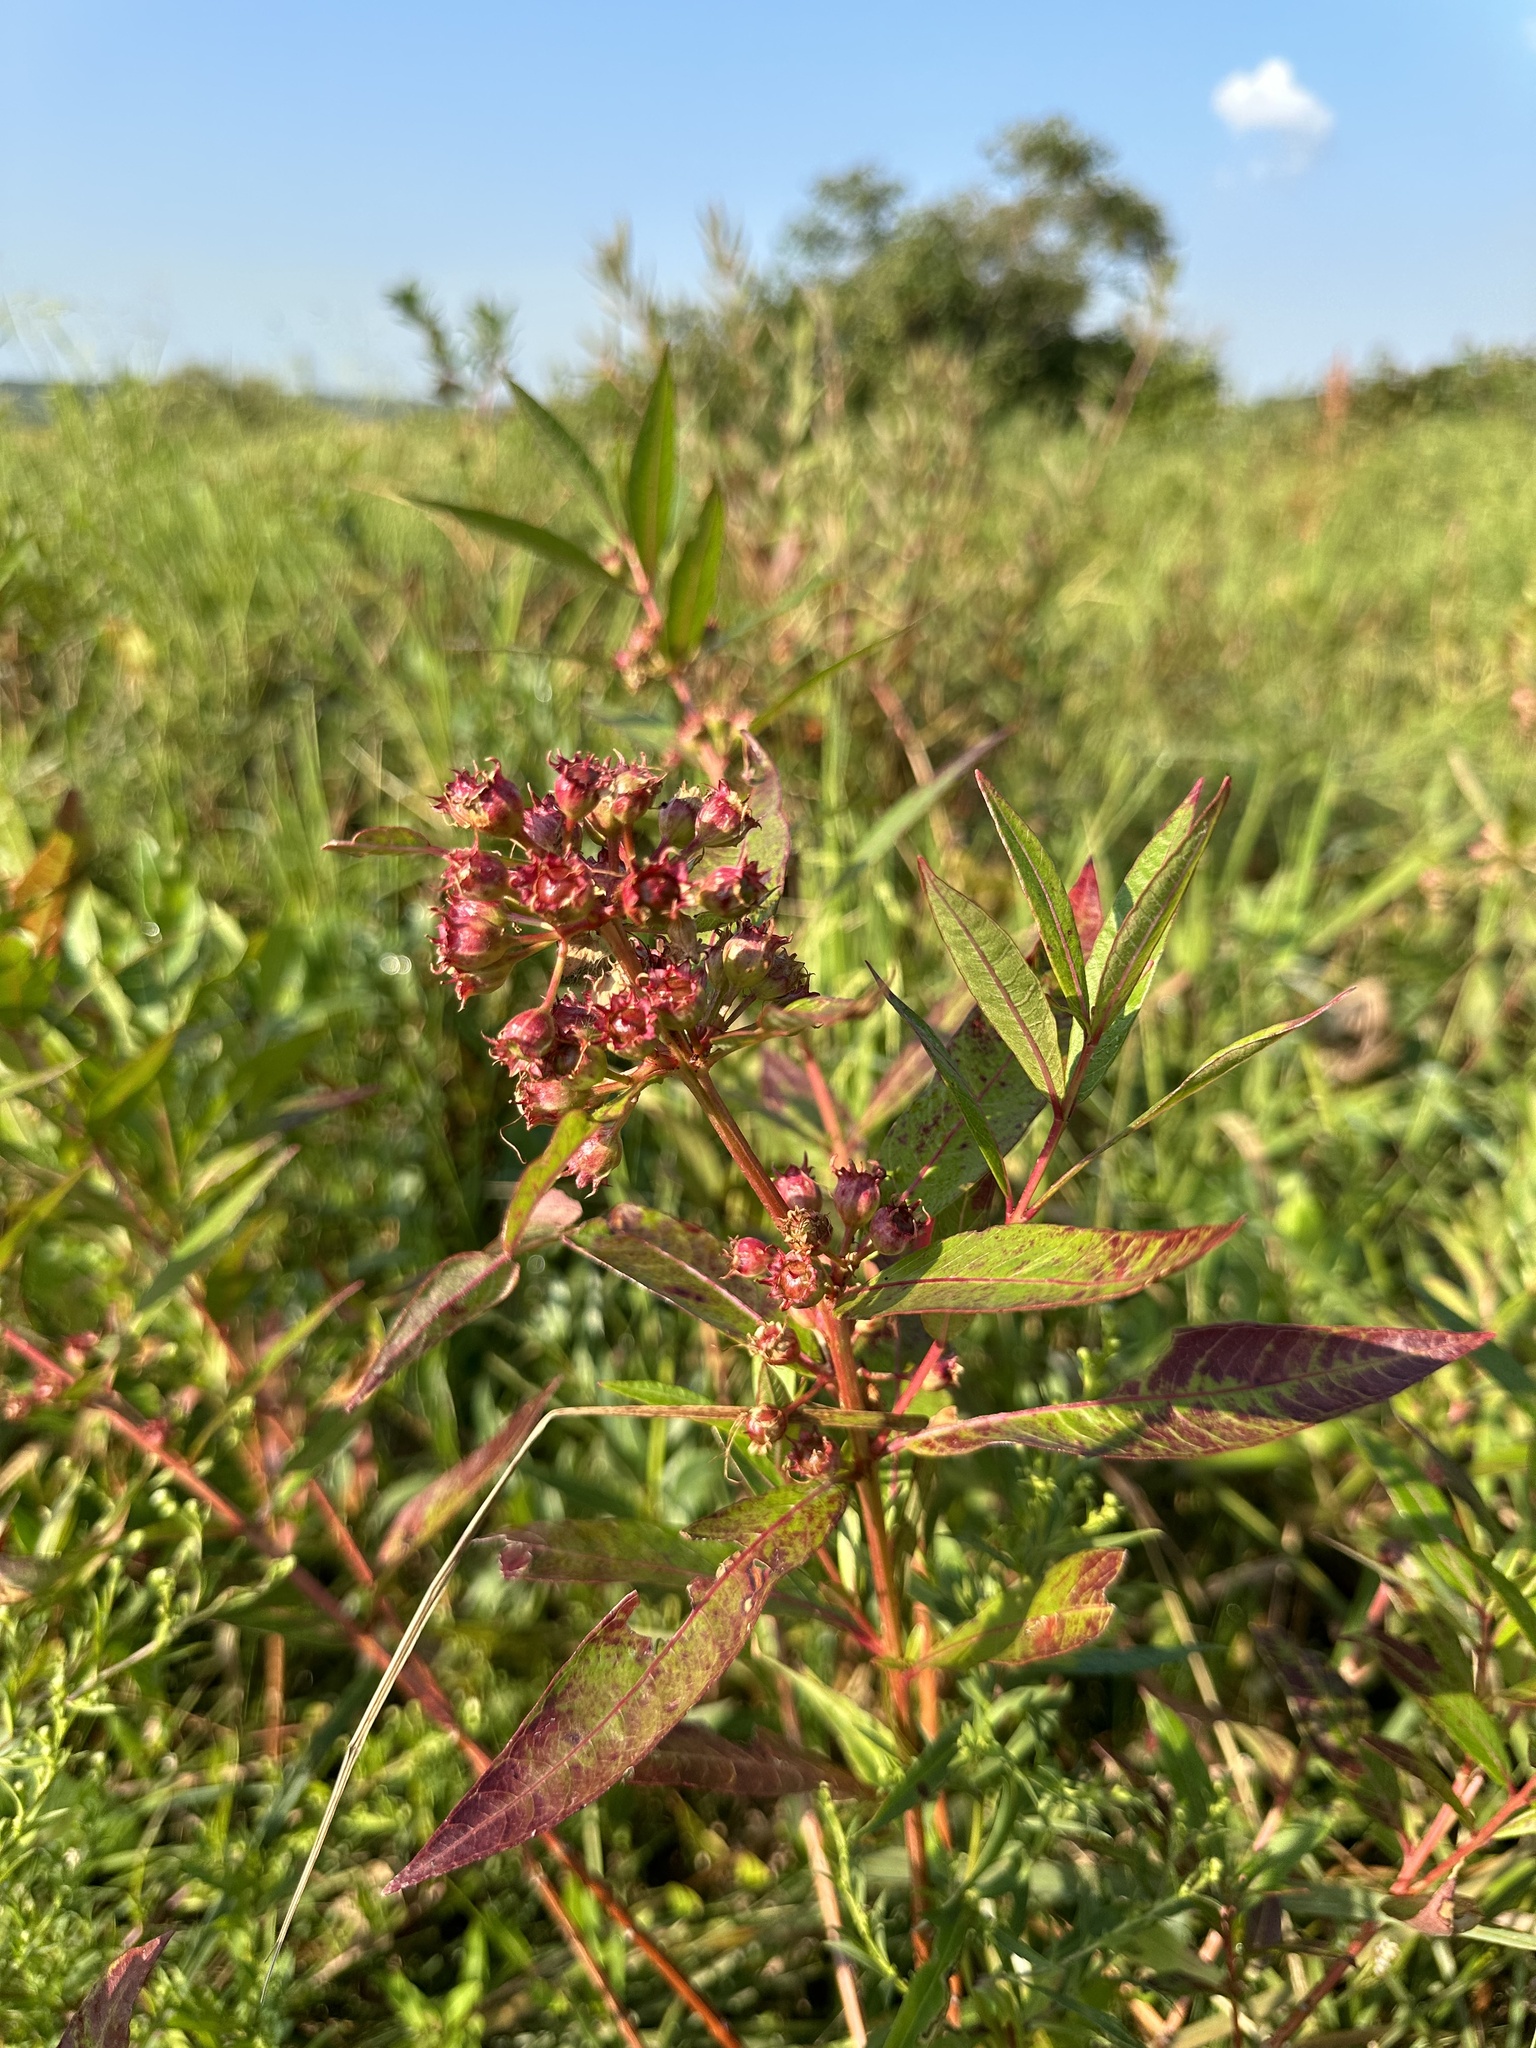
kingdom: Plantae
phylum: Tracheophyta
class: Magnoliopsida
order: Myrtales
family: Lythraceae
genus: Decodon
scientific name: Decodon verticillatus
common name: Hairy swamp loosestrife
